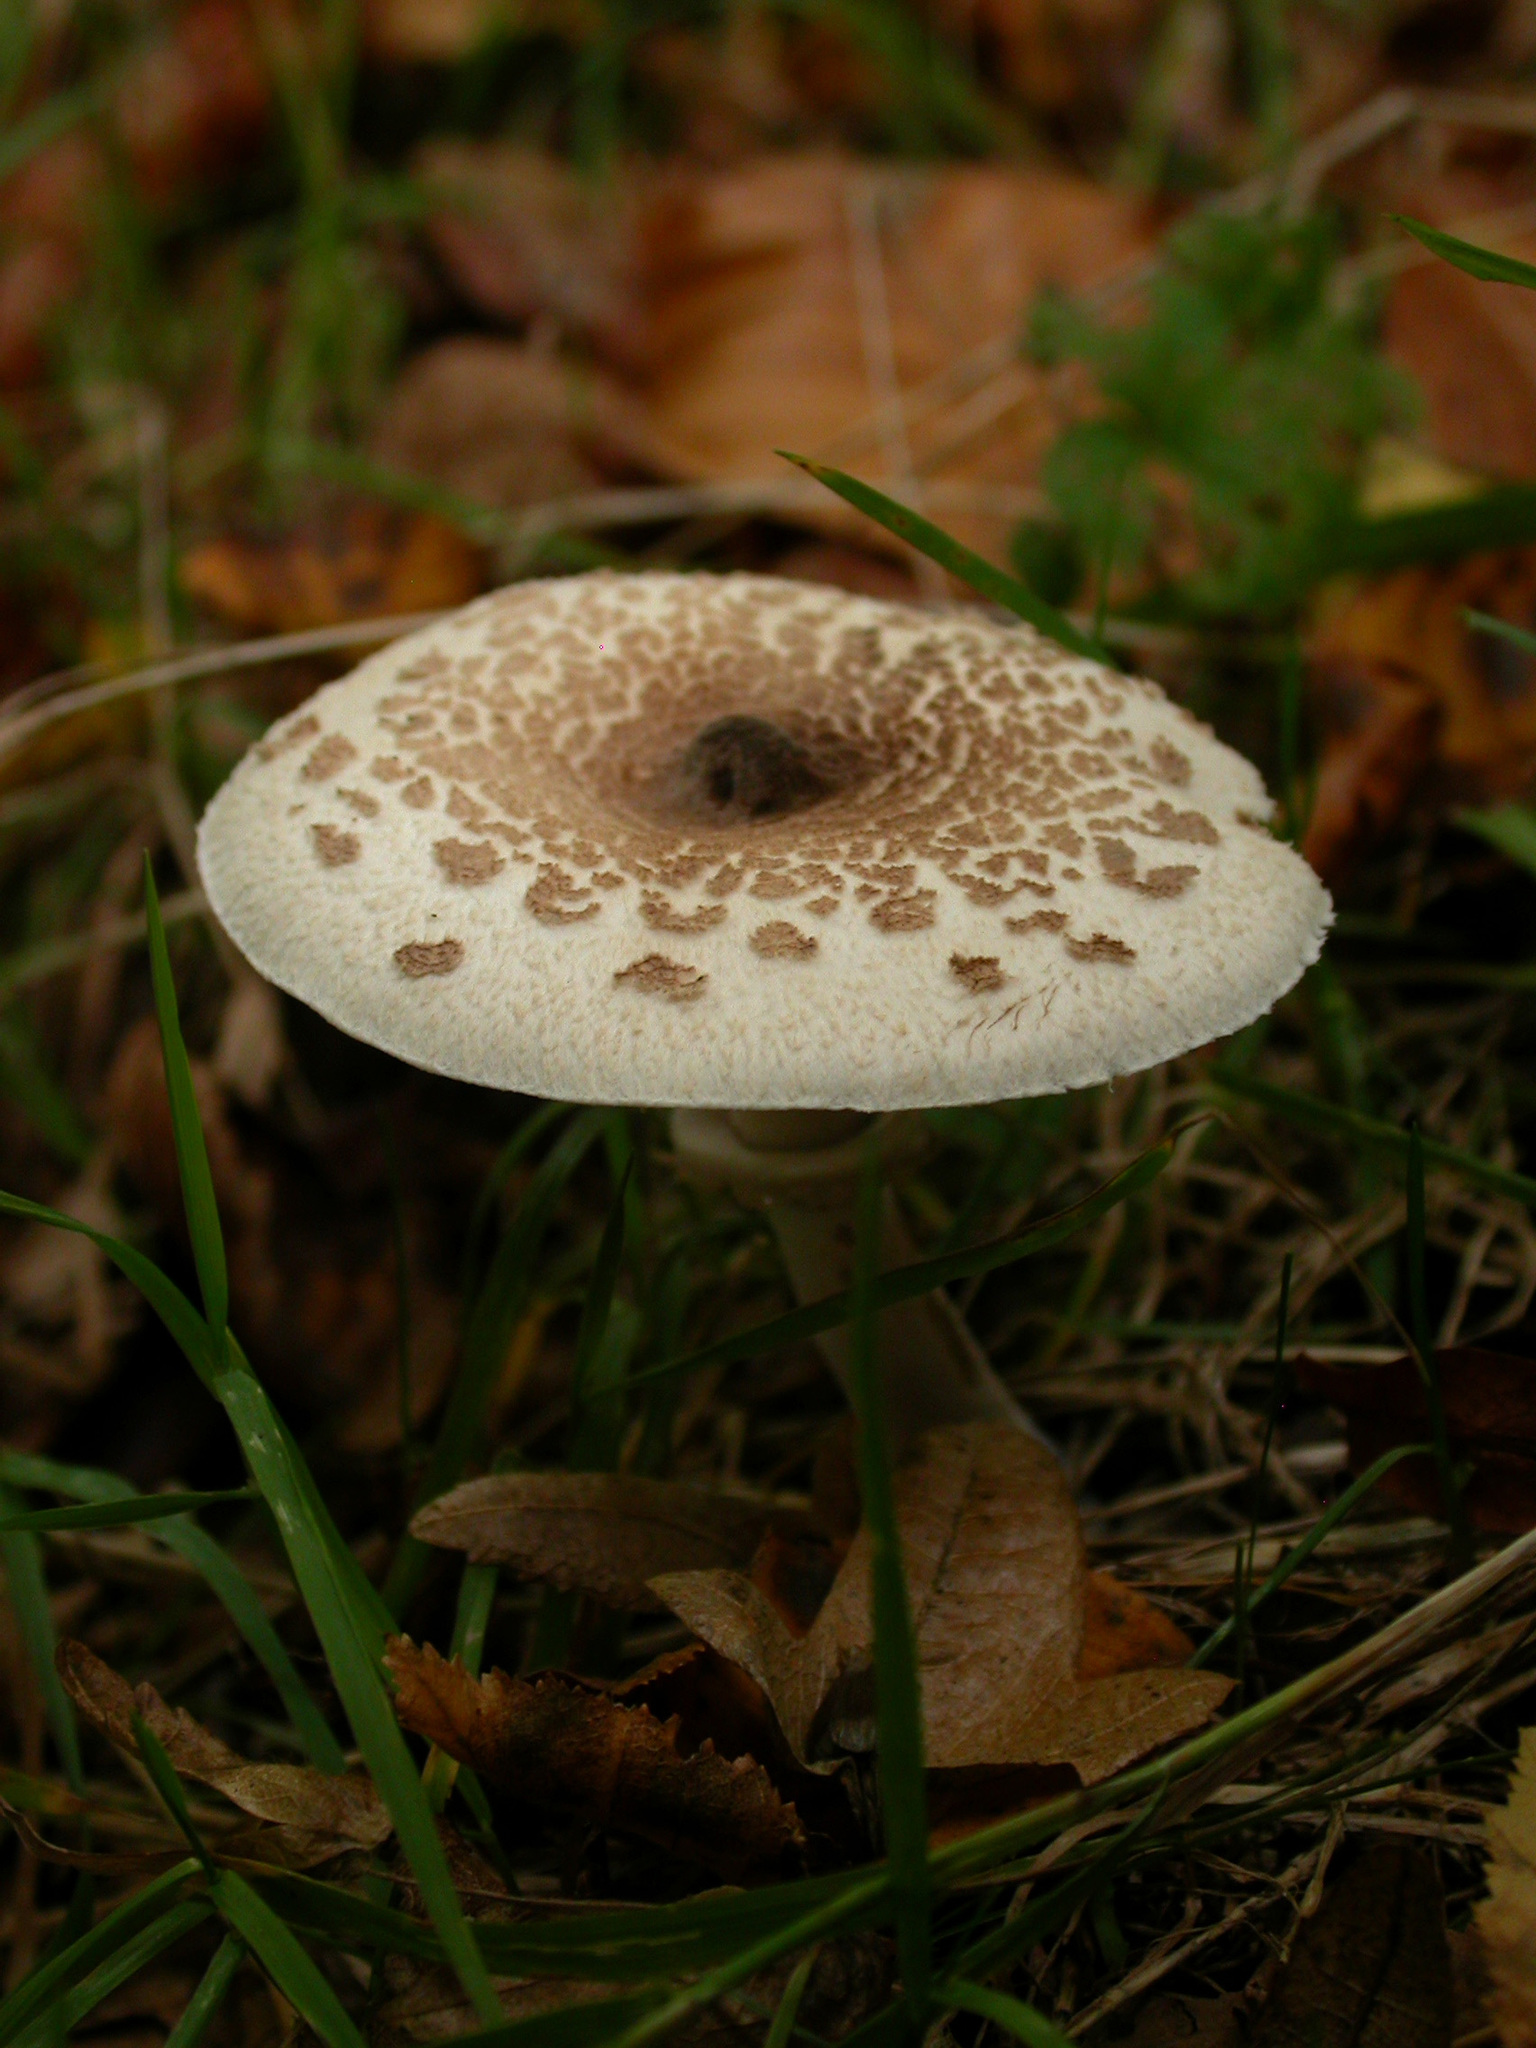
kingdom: Fungi
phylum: Basidiomycota
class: Agaricomycetes
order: Agaricales
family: Agaricaceae
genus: Macrolepiota
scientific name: Macrolepiota procera
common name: Parasol
